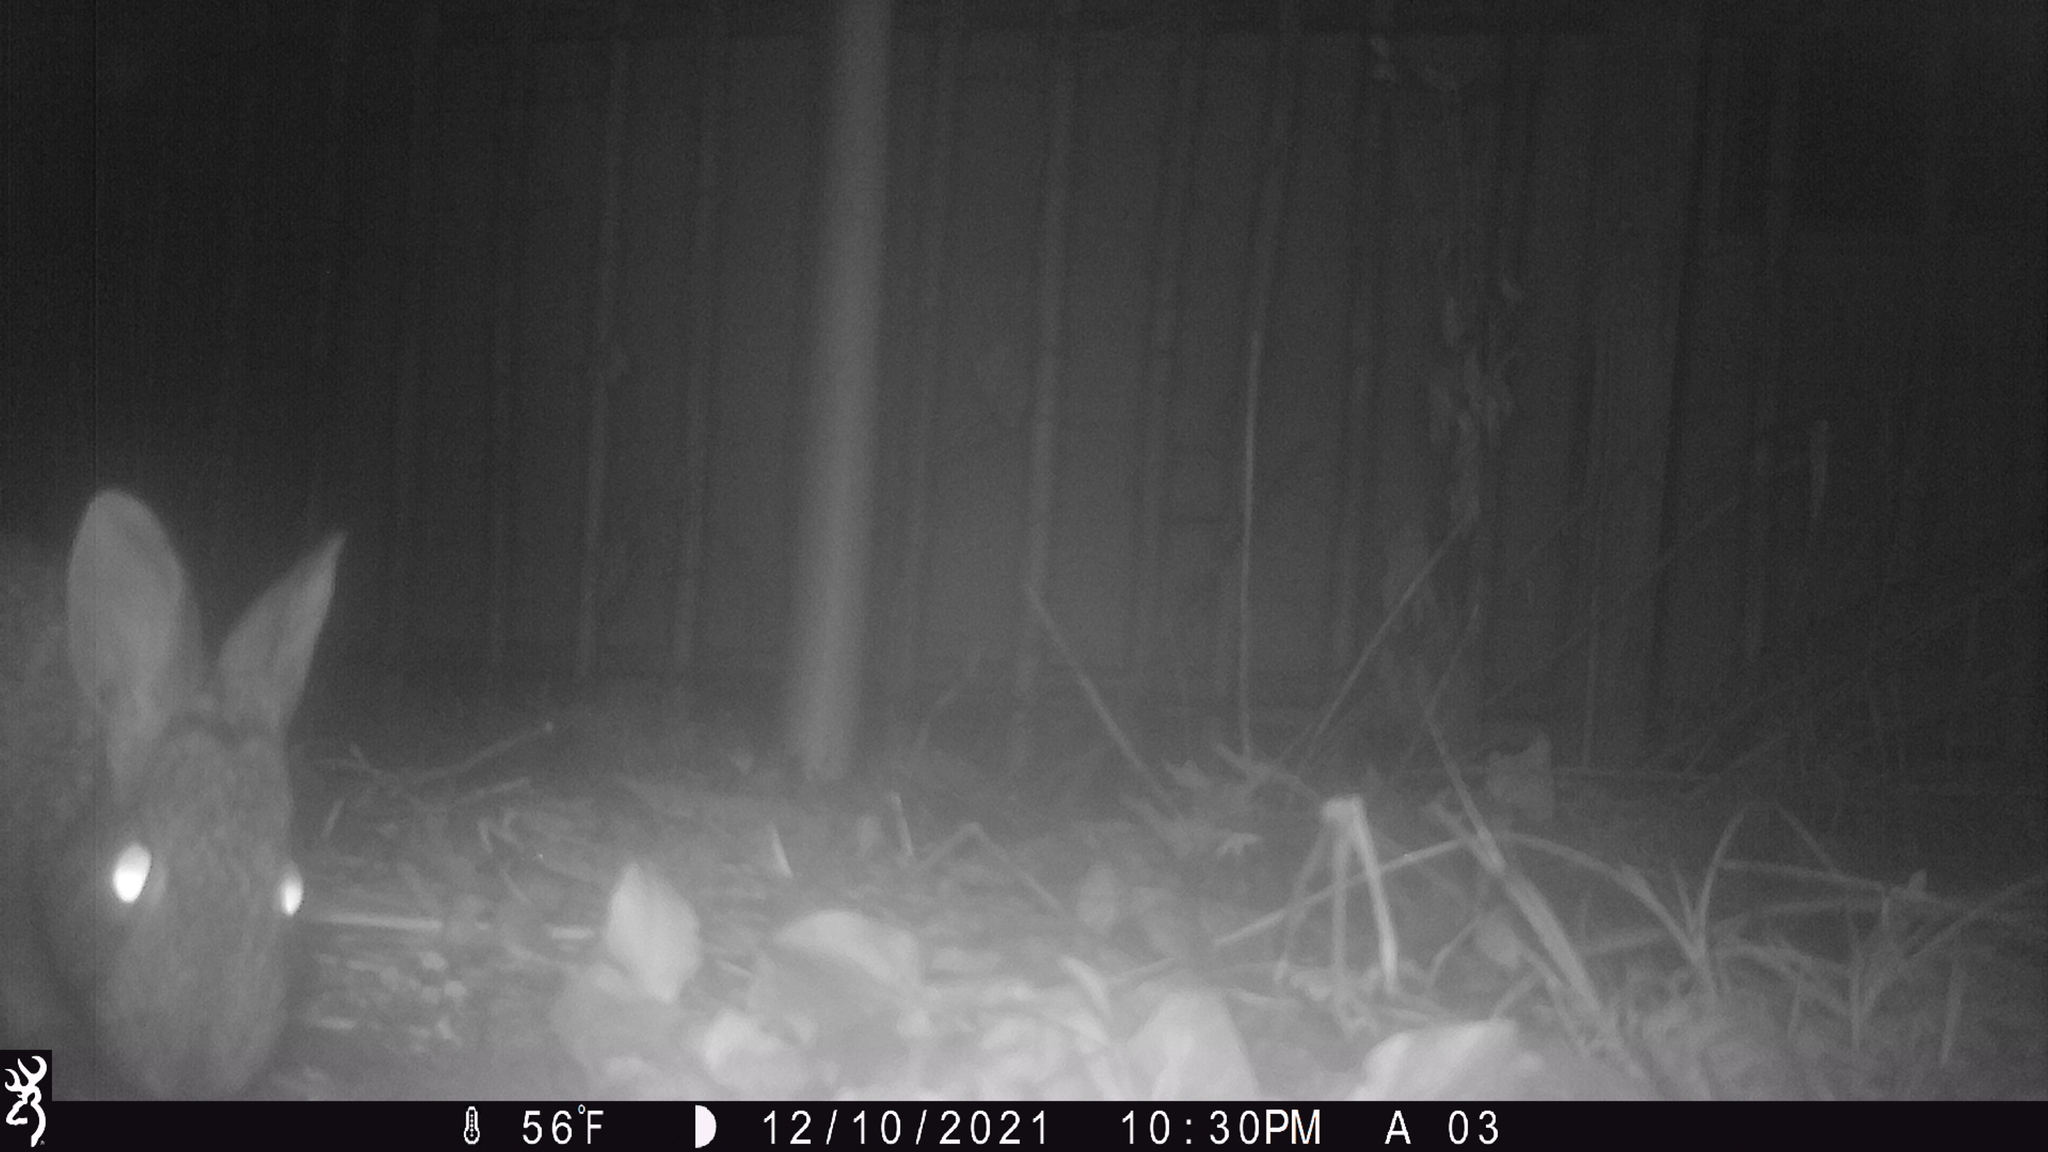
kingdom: Animalia
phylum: Chordata
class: Mammalia
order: Lagomorpha
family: Leporidae
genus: Sylvilagus
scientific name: Sylvilagus floridanus
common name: Eastern cottontail
